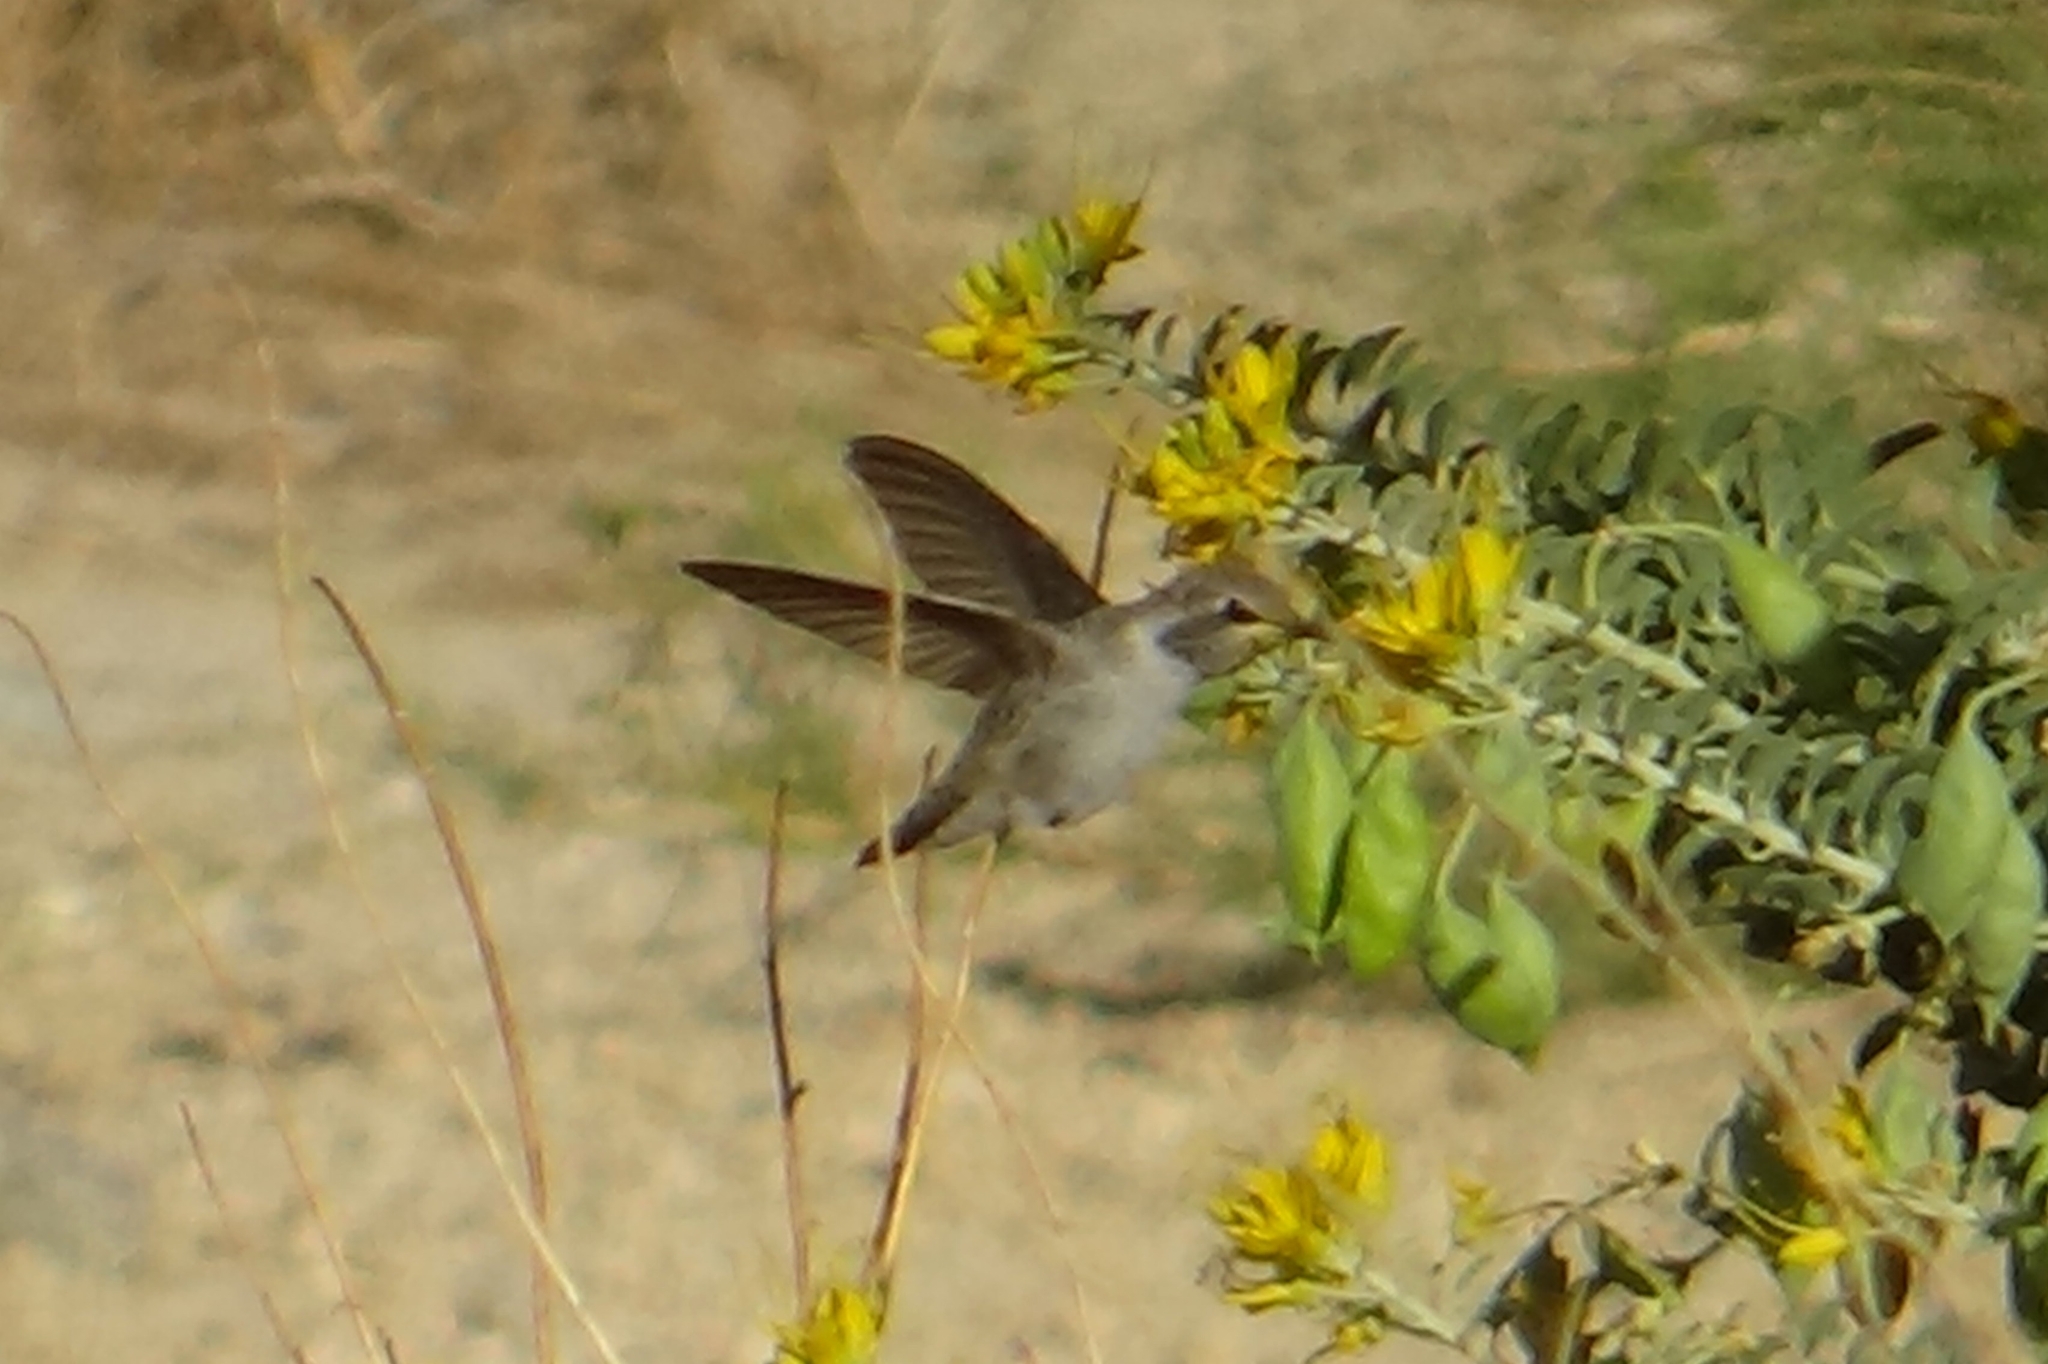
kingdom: Animalia
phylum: Chordata
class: Aves
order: Apodiformes
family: Trochilidae
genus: Calypte
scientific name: Calypte costae
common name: Costa's hummingbird
